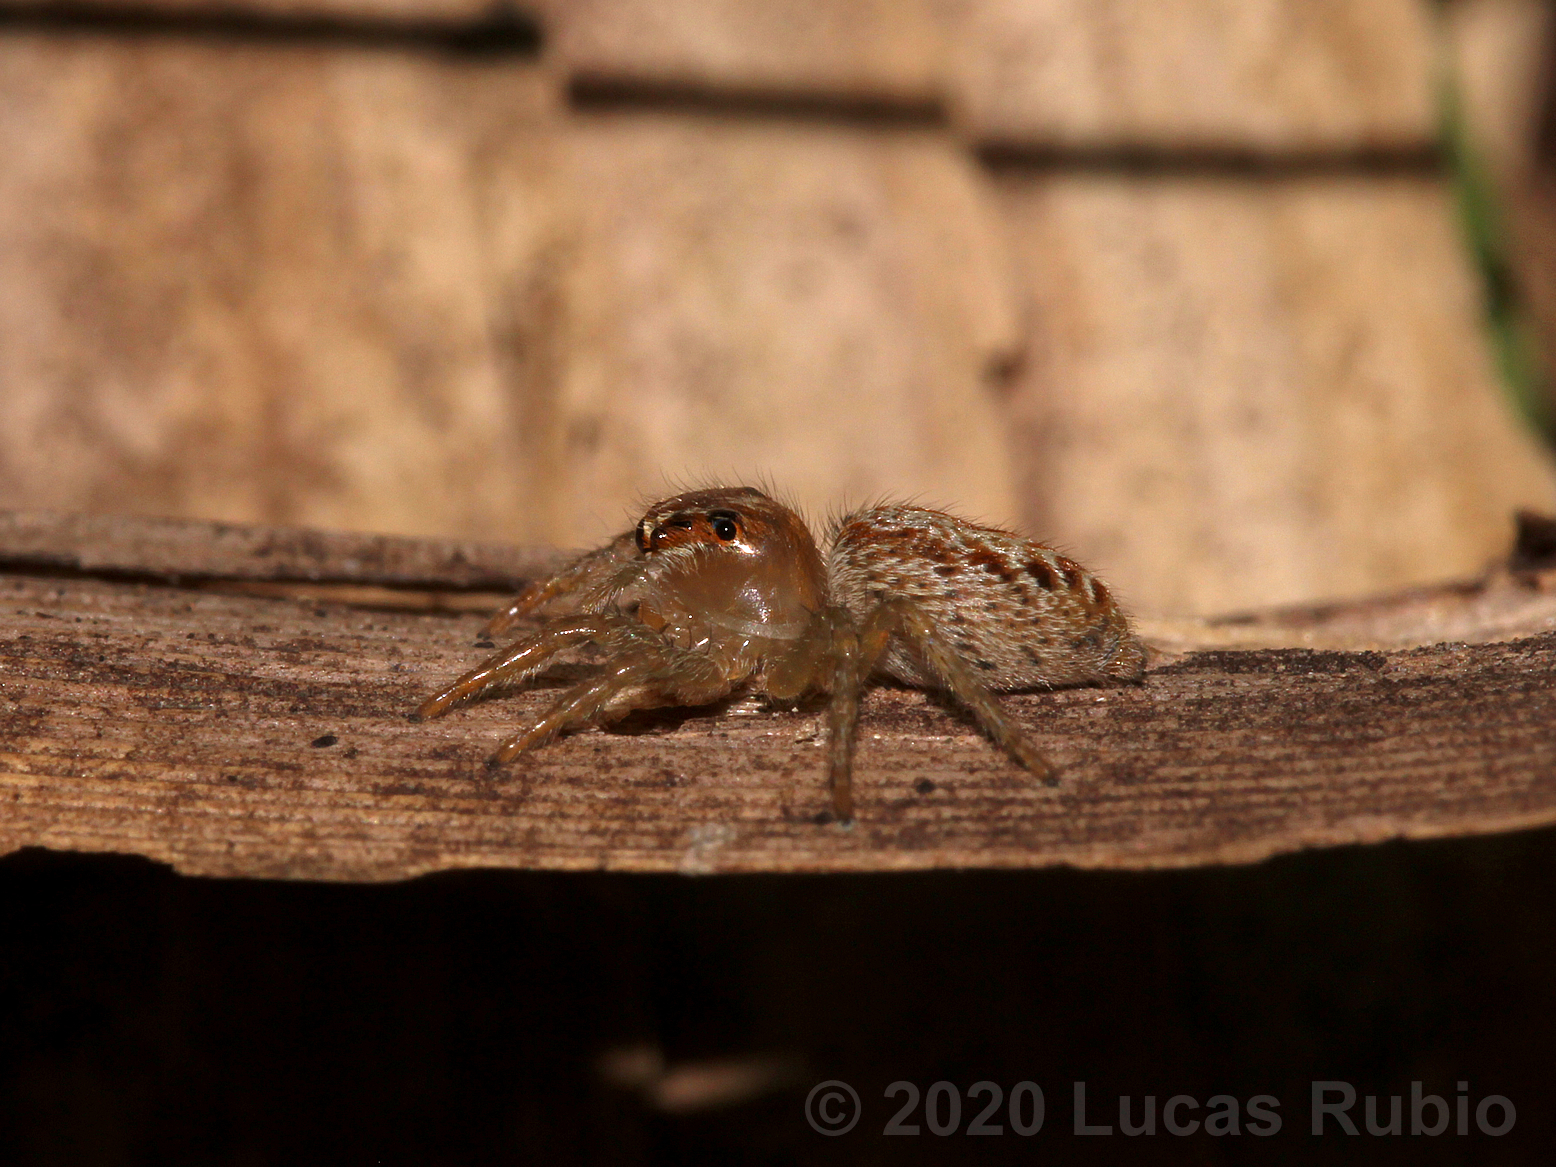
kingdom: Animalia
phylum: Arthropoda
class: Arachnida
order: Araneae
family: Salticidae
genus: Chira
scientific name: Chira gounellei
